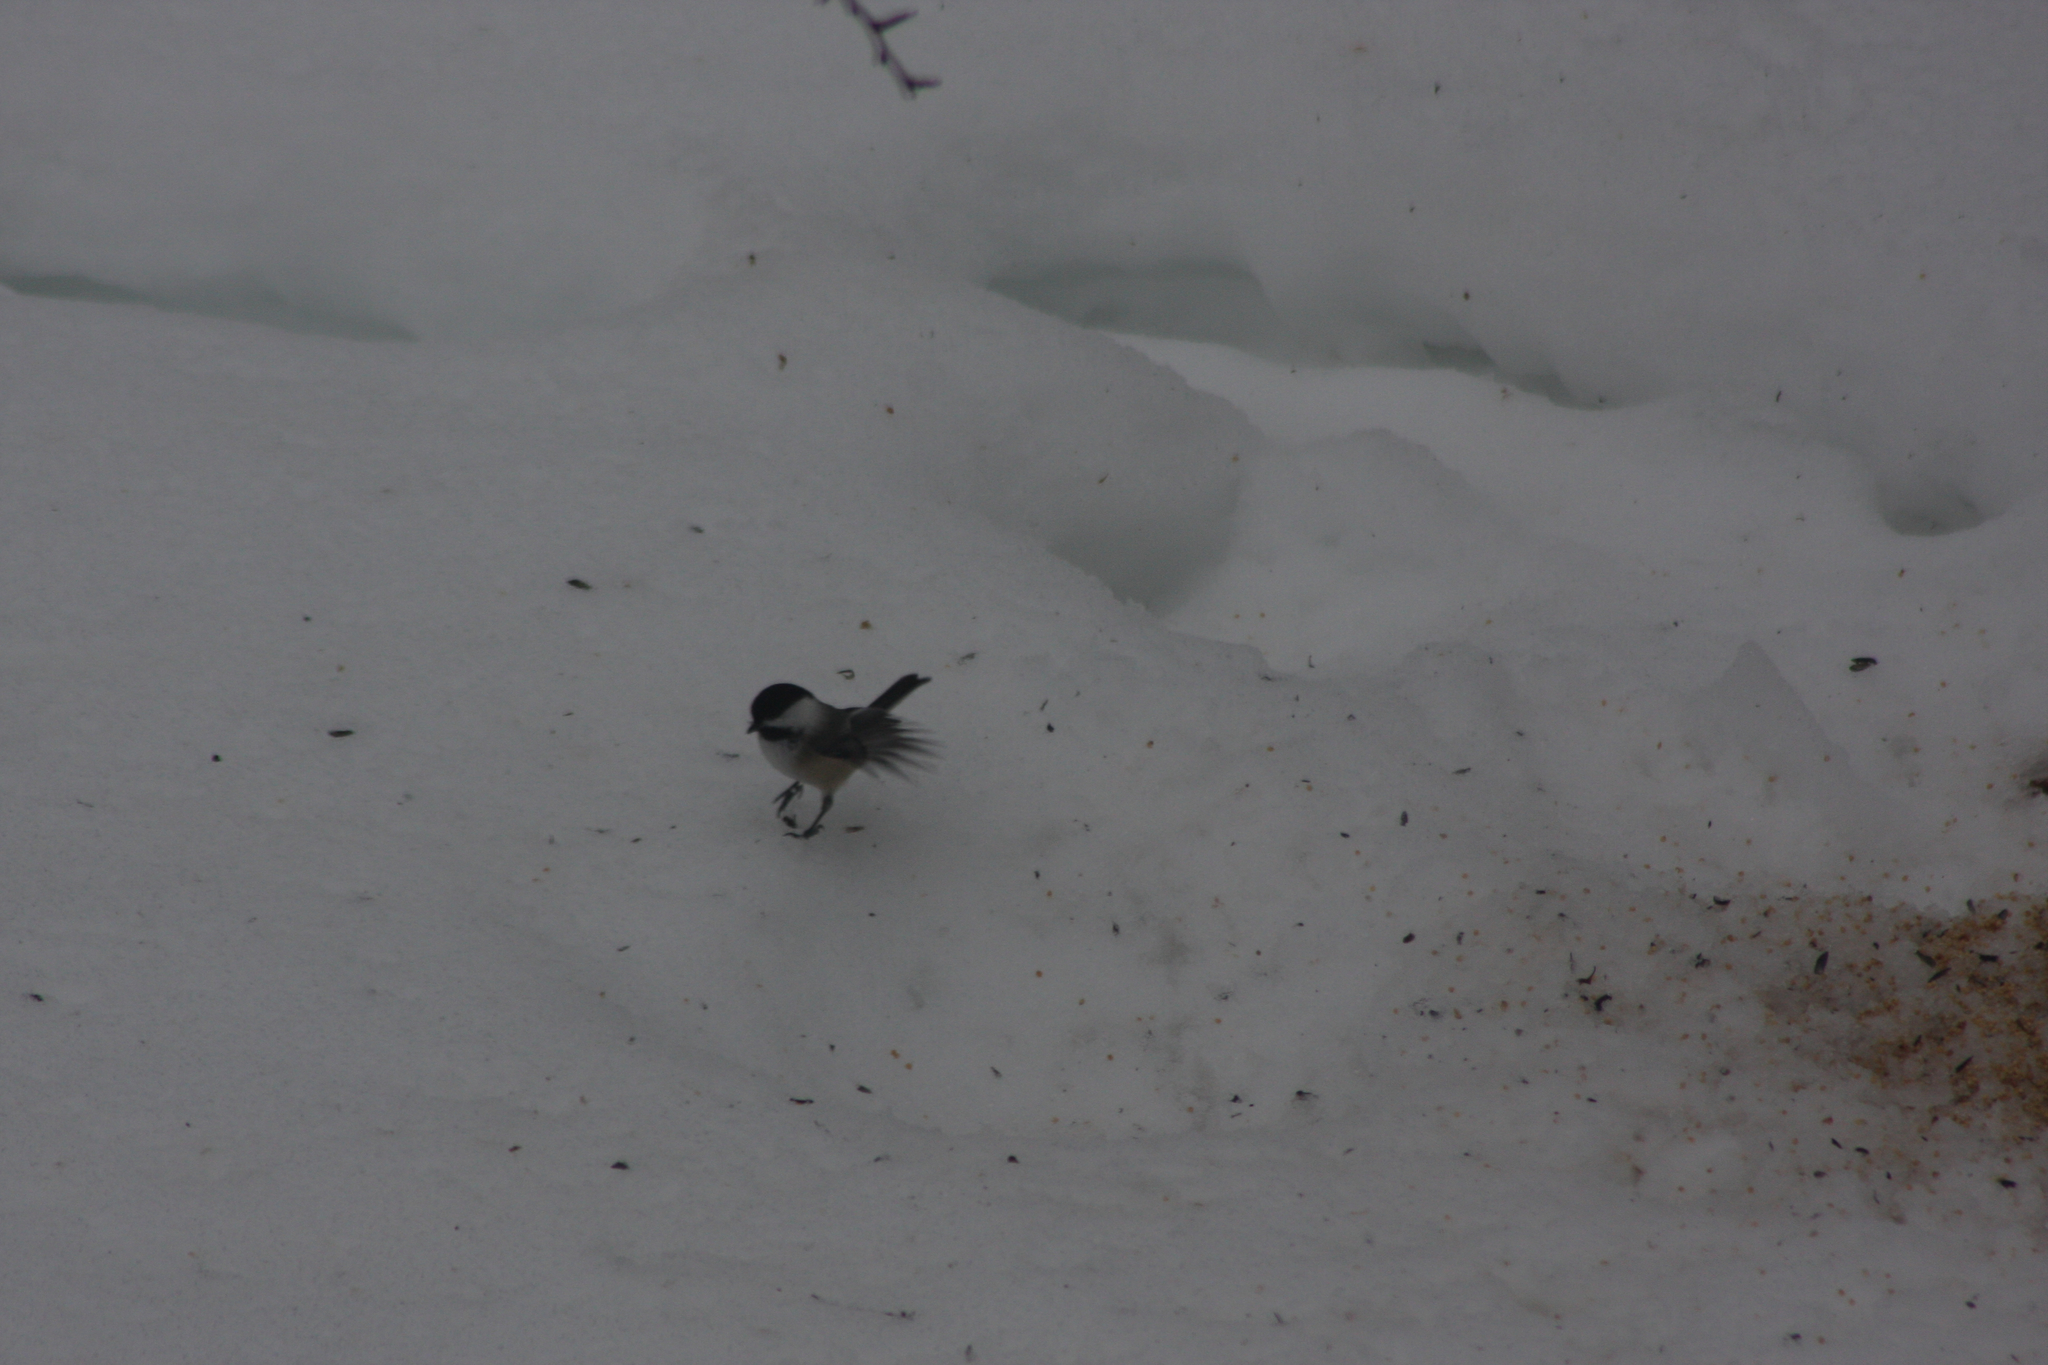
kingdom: Animalia
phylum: Chordata
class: Aves
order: Passeriformes
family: Paridae
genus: Poecile
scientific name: Poecile atricapillus
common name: Black-capped chickadee
